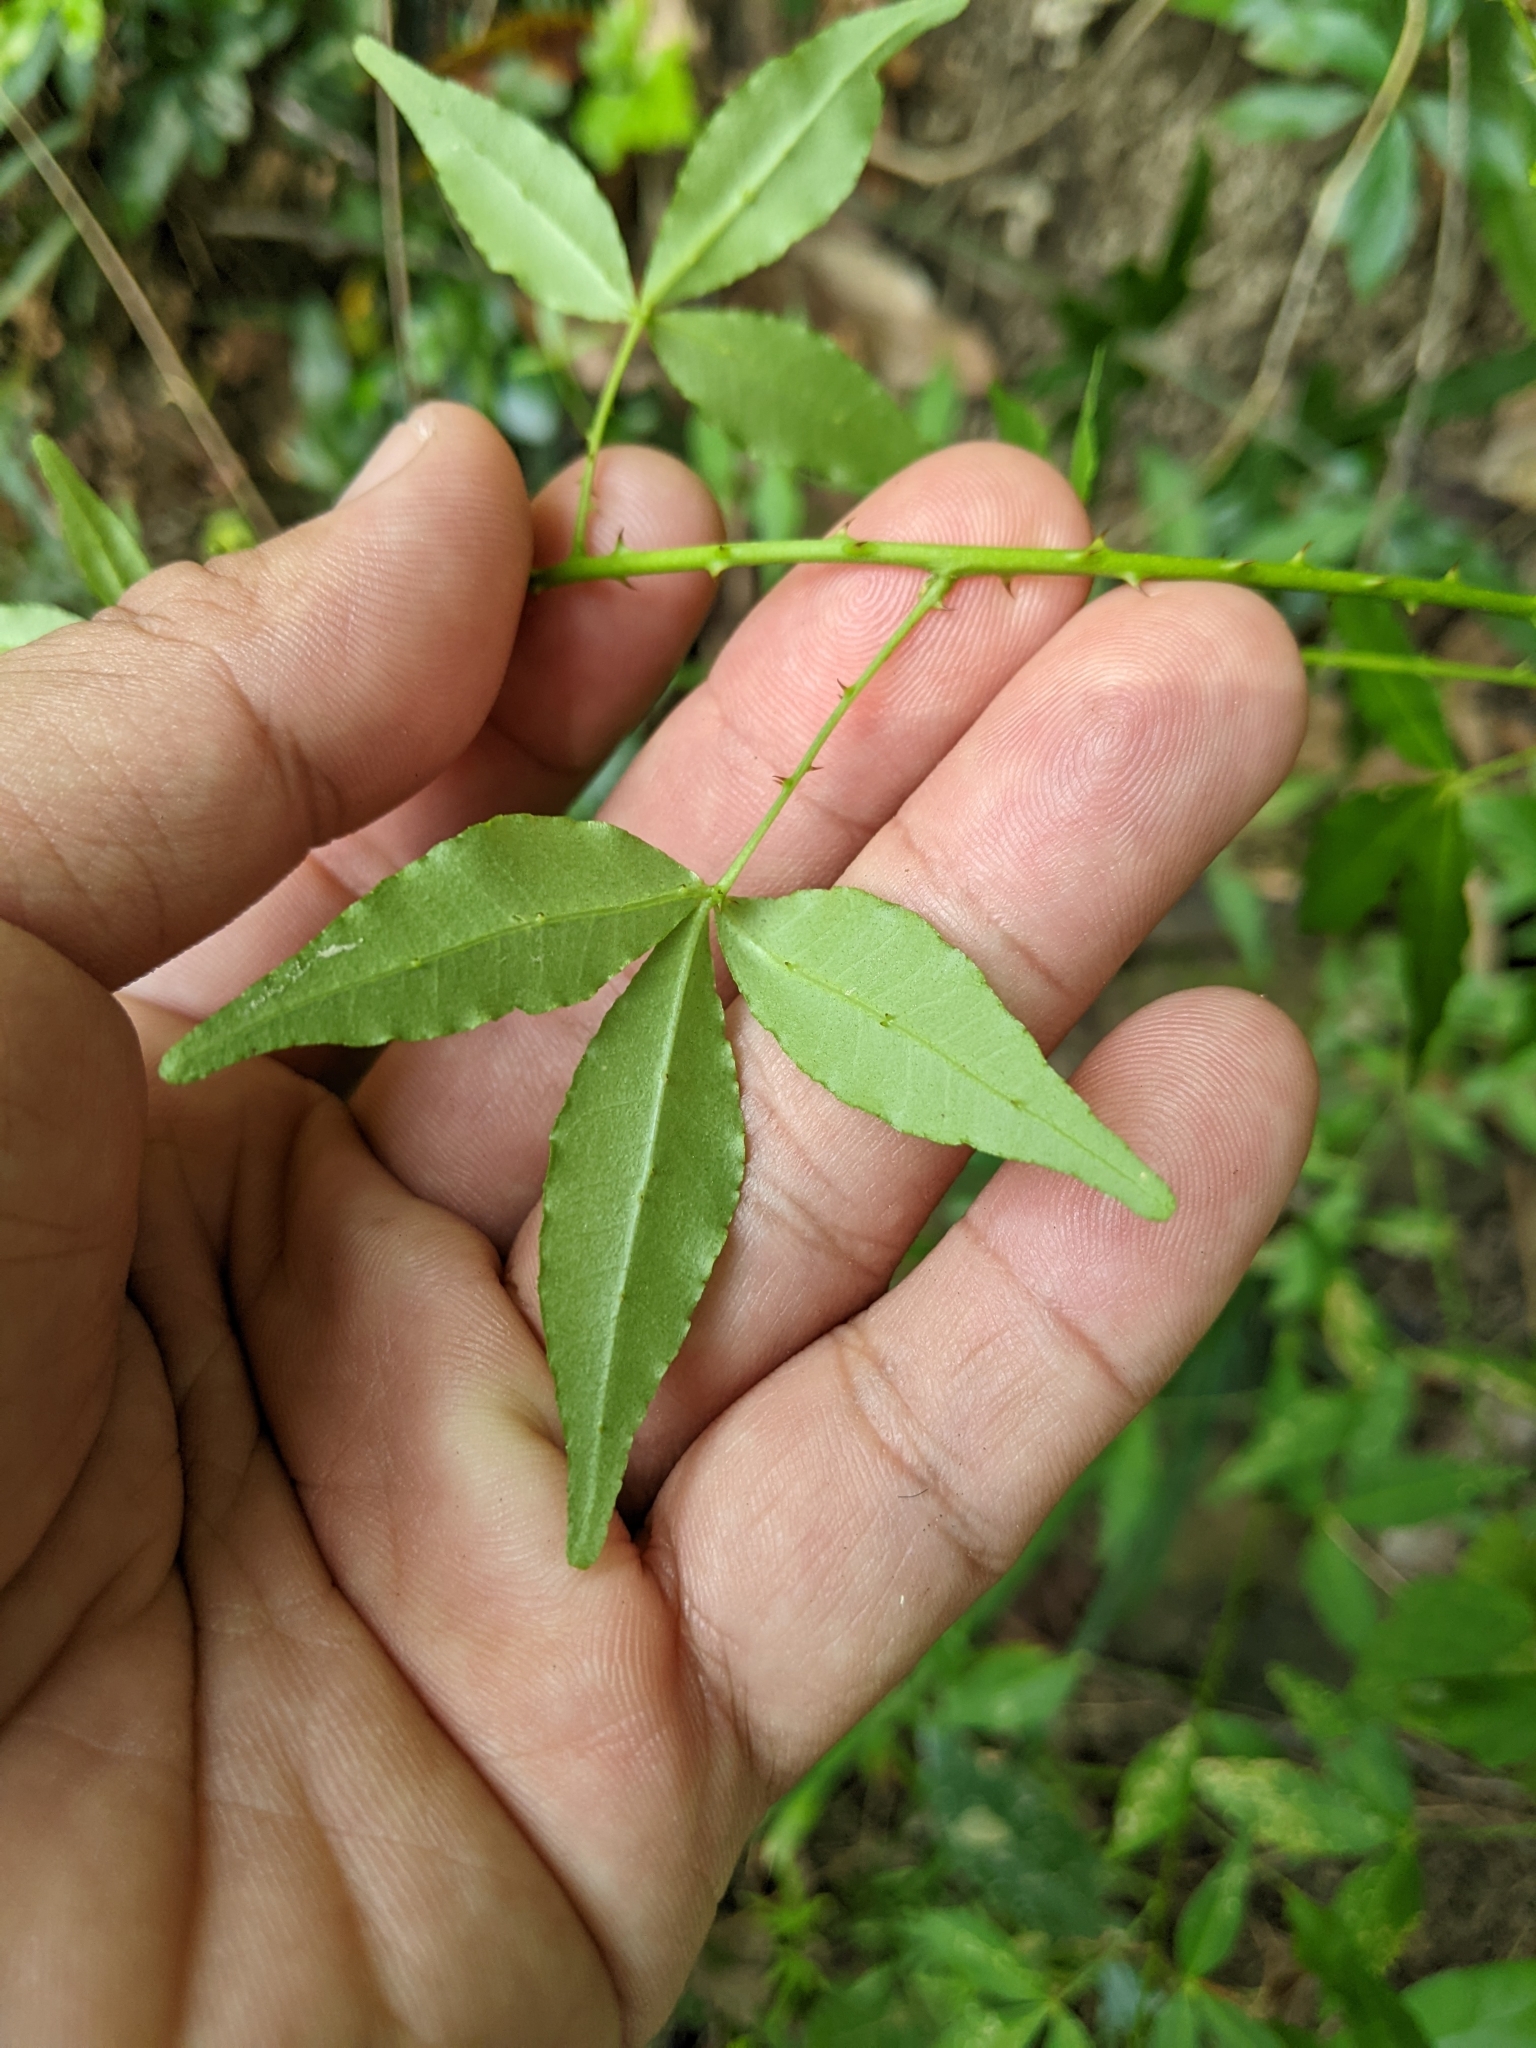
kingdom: Plantae
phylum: Tracheophyta
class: Magnoliopsida
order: Sapindales
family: Rutaceae
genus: Zanthoxylum
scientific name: Zanthoxylum asiaticum
